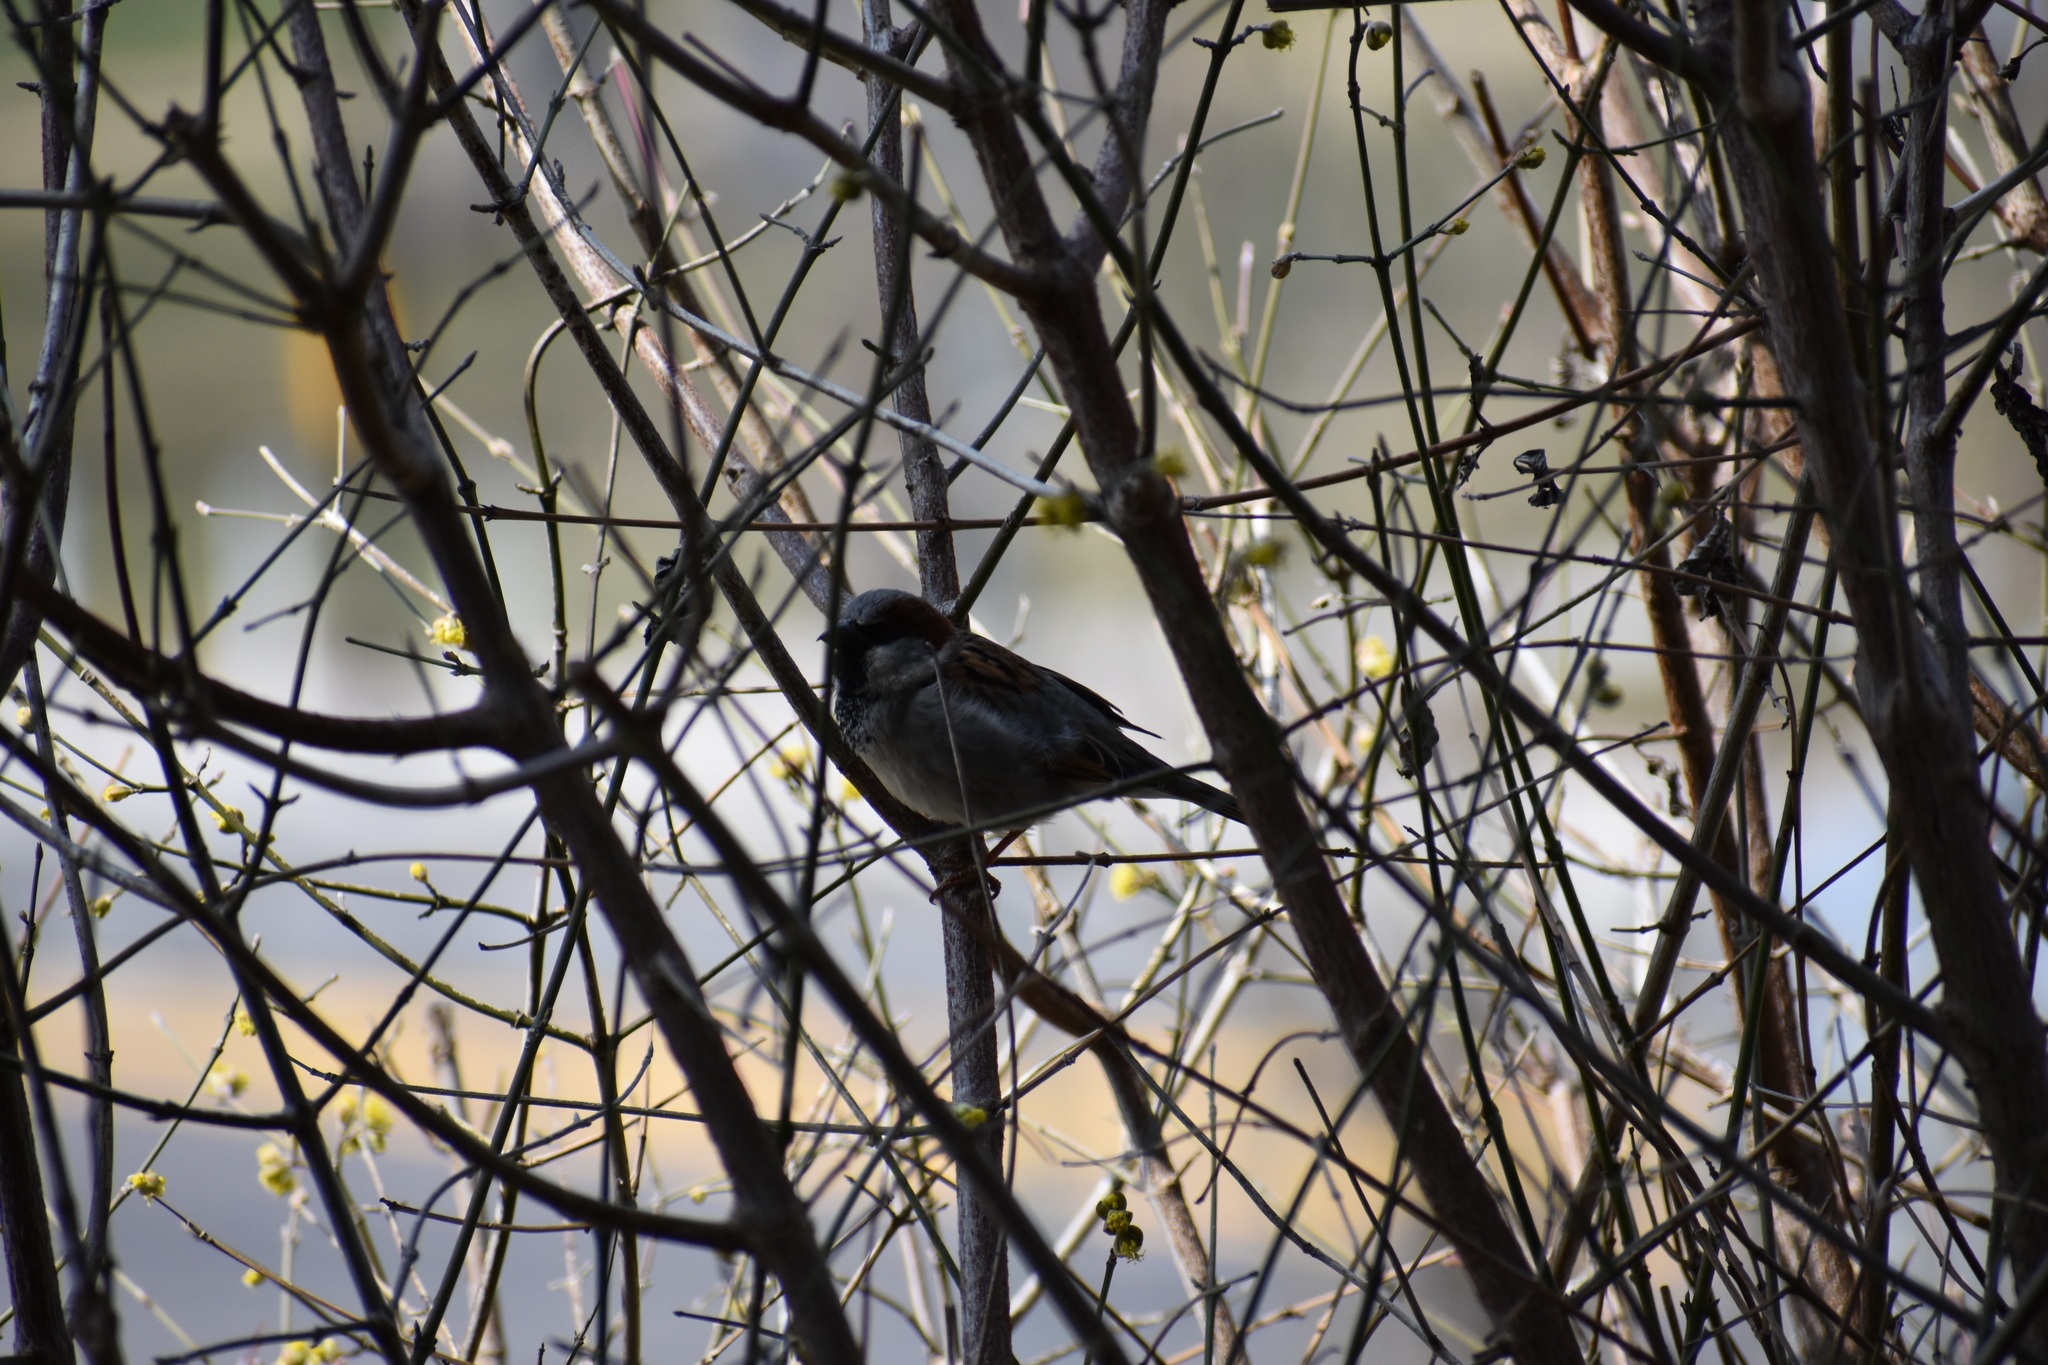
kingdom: Animalia
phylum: Chordata
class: Aves
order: Passeriformes
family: Passeridae
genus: Passer
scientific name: Passer domesticus
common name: House sparrow
